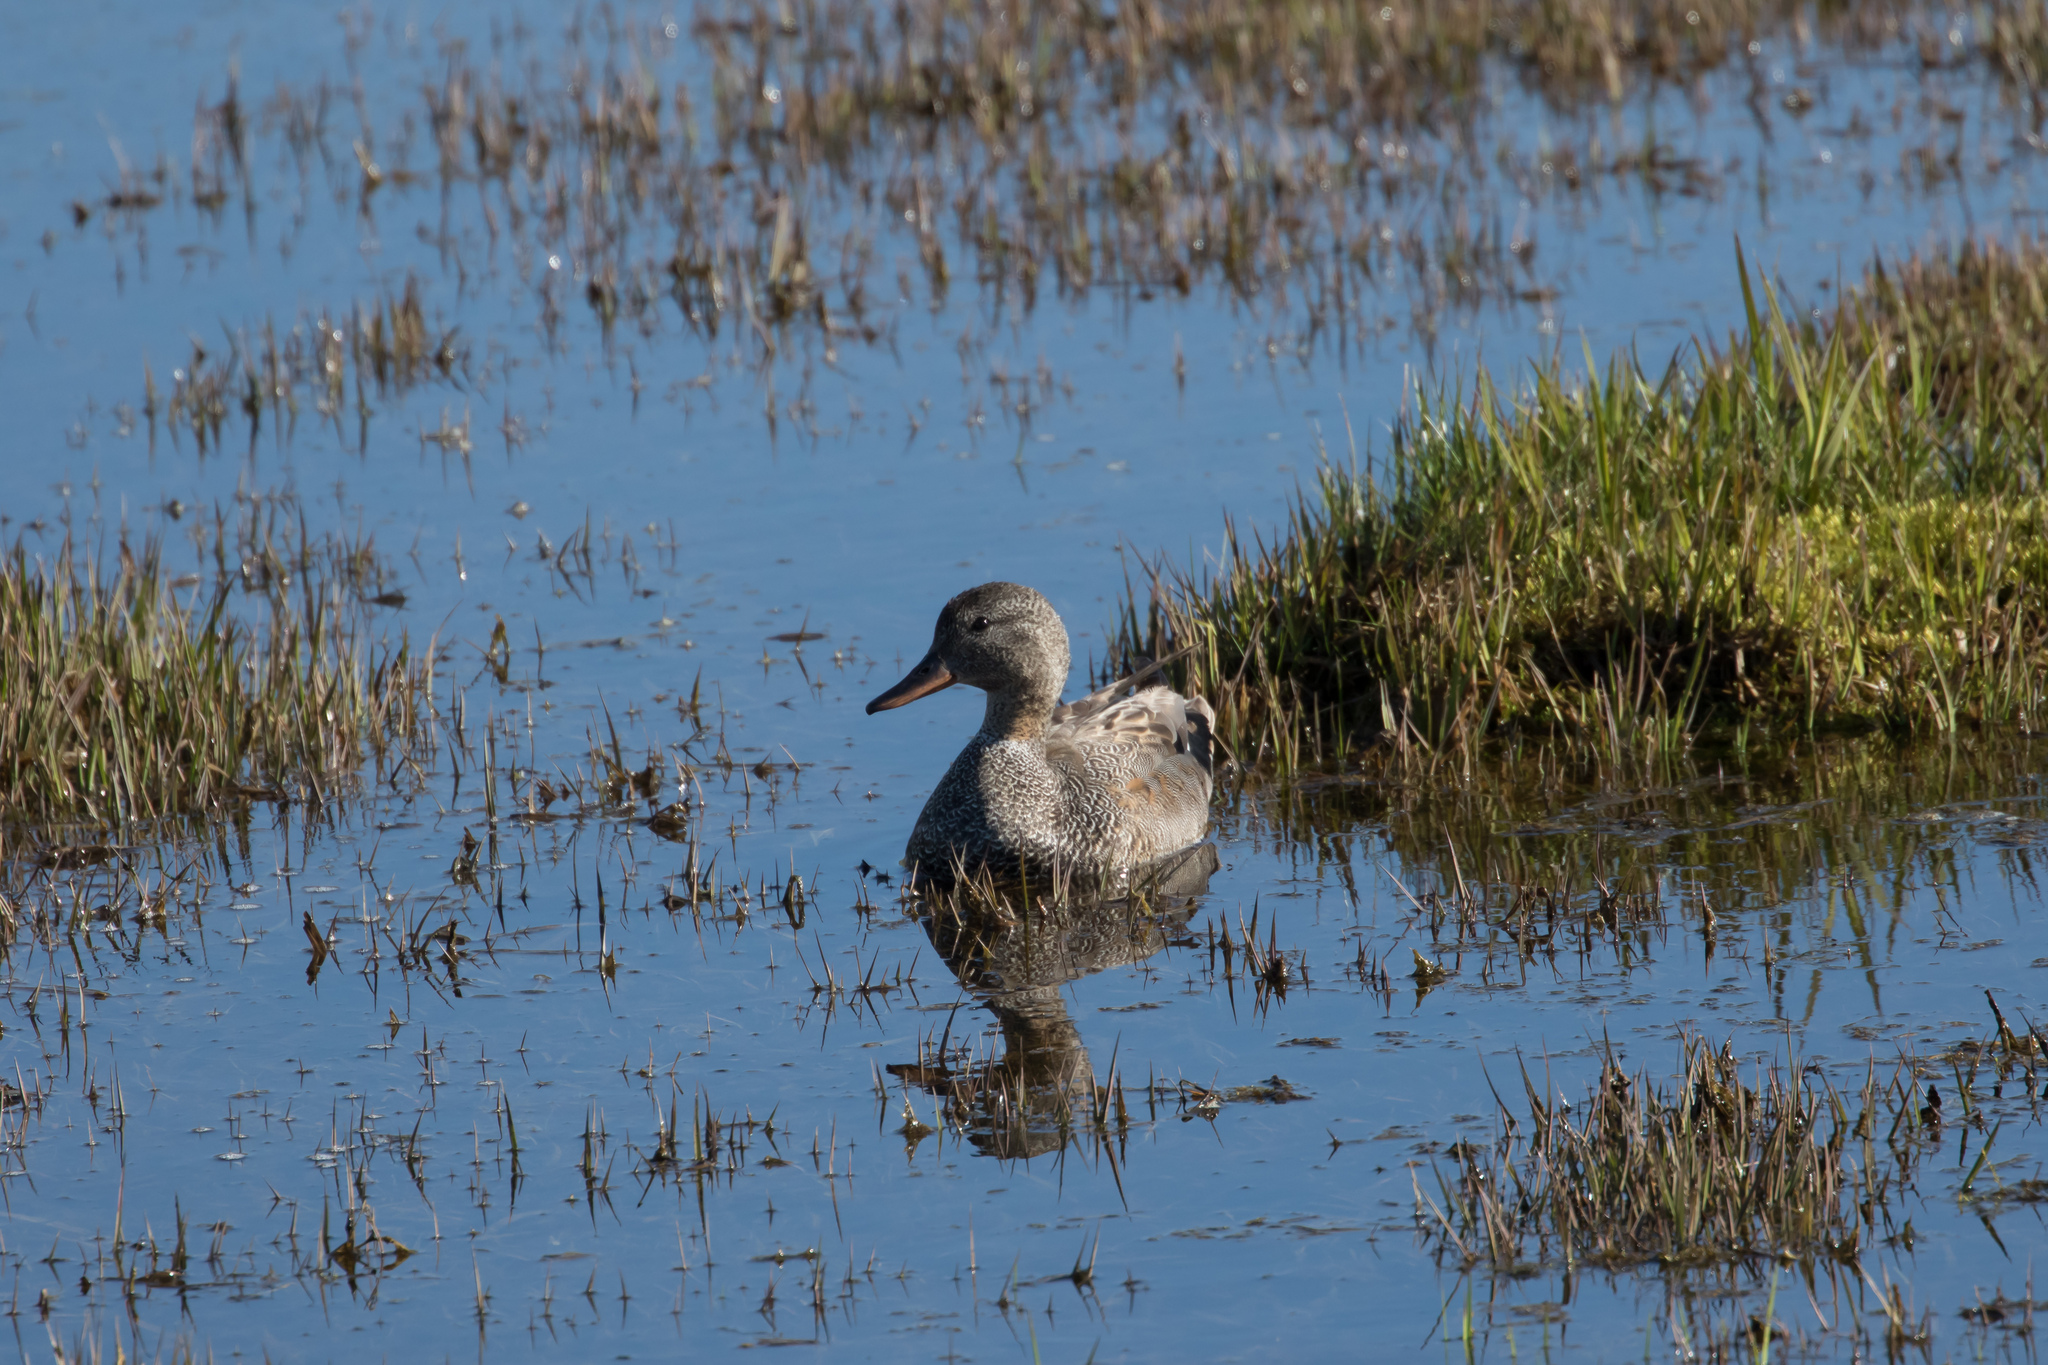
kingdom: Animalia
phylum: Chordata
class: Aves
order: Anseriformes
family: Anatidae
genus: Mareca
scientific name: Mareca strepera
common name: Gadwall
